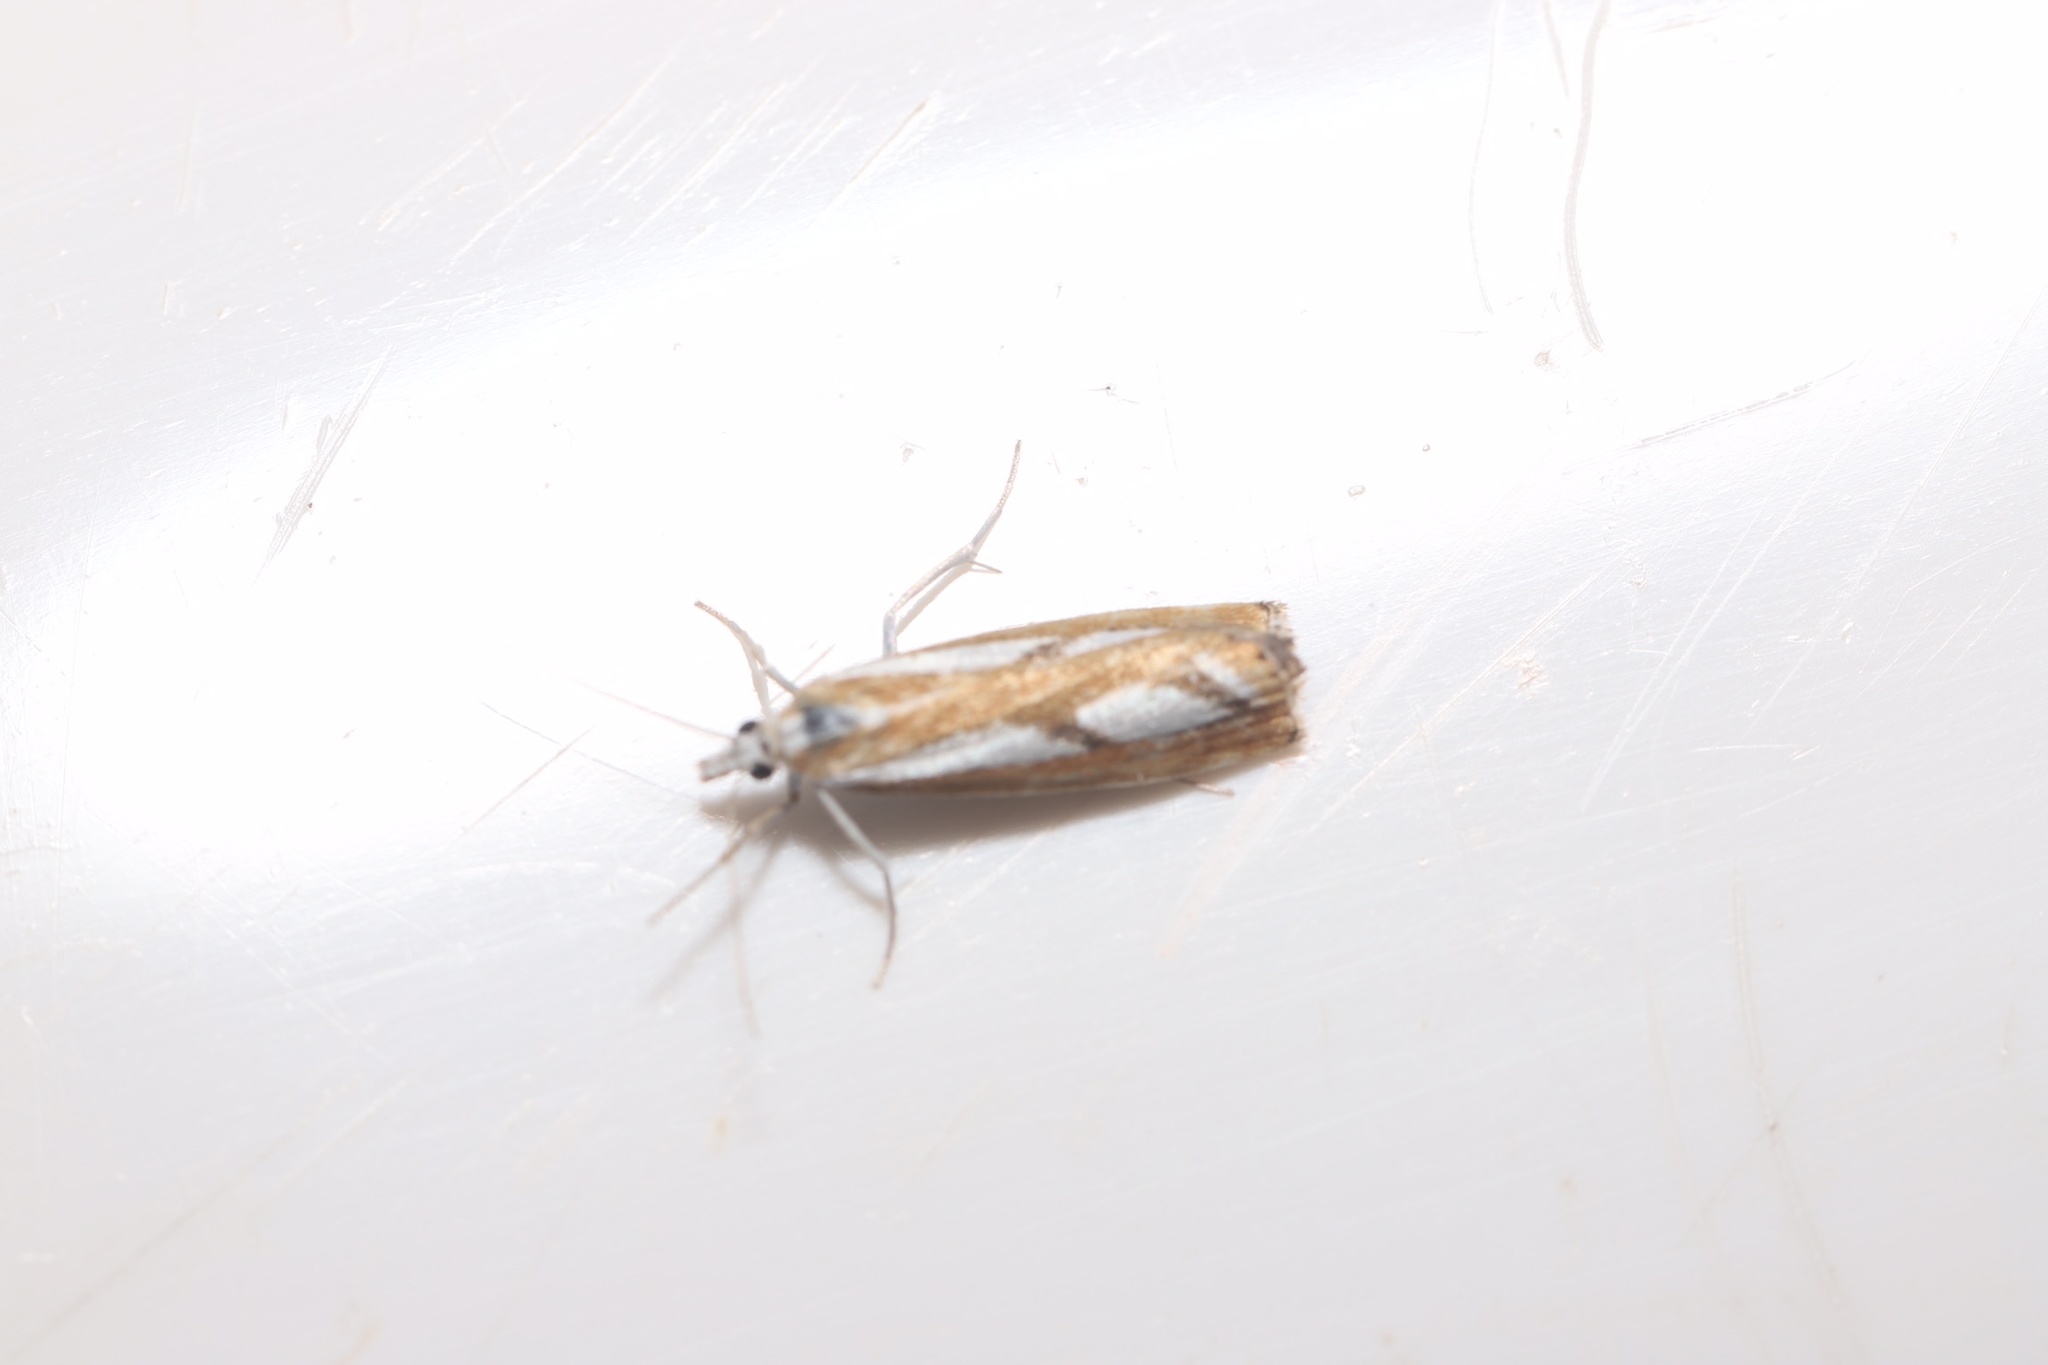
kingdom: Animalia
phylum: Arthropoda
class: Insecta
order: Lepidoptera
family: Crambidae
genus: Catoptria
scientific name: Catoptria latiradiellus
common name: Two-banded catoptria moth
